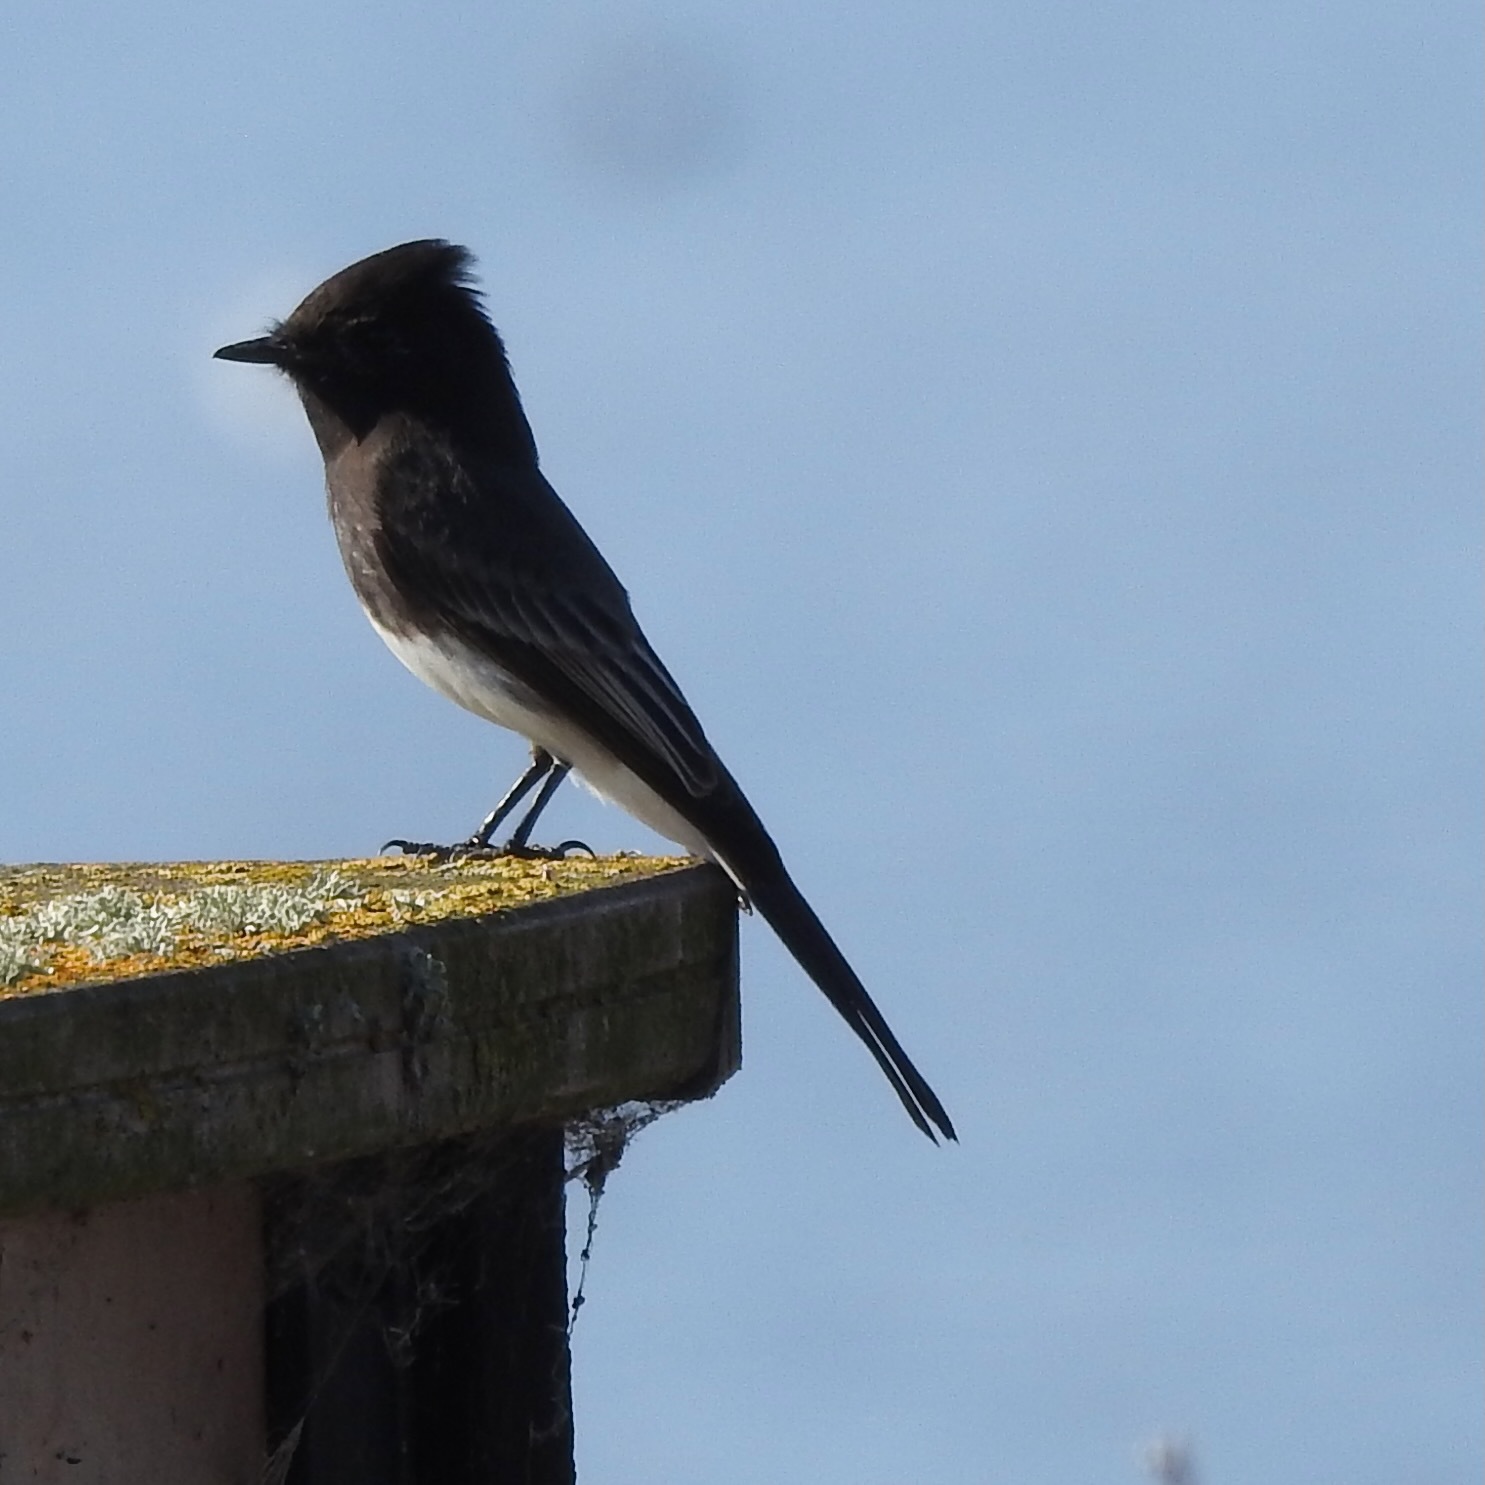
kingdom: Animalia
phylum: Chordata
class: Aves
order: Passeriformes
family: Tyrannidae
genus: Sayornis
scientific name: Sayornis nigricans
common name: Black phoebe
